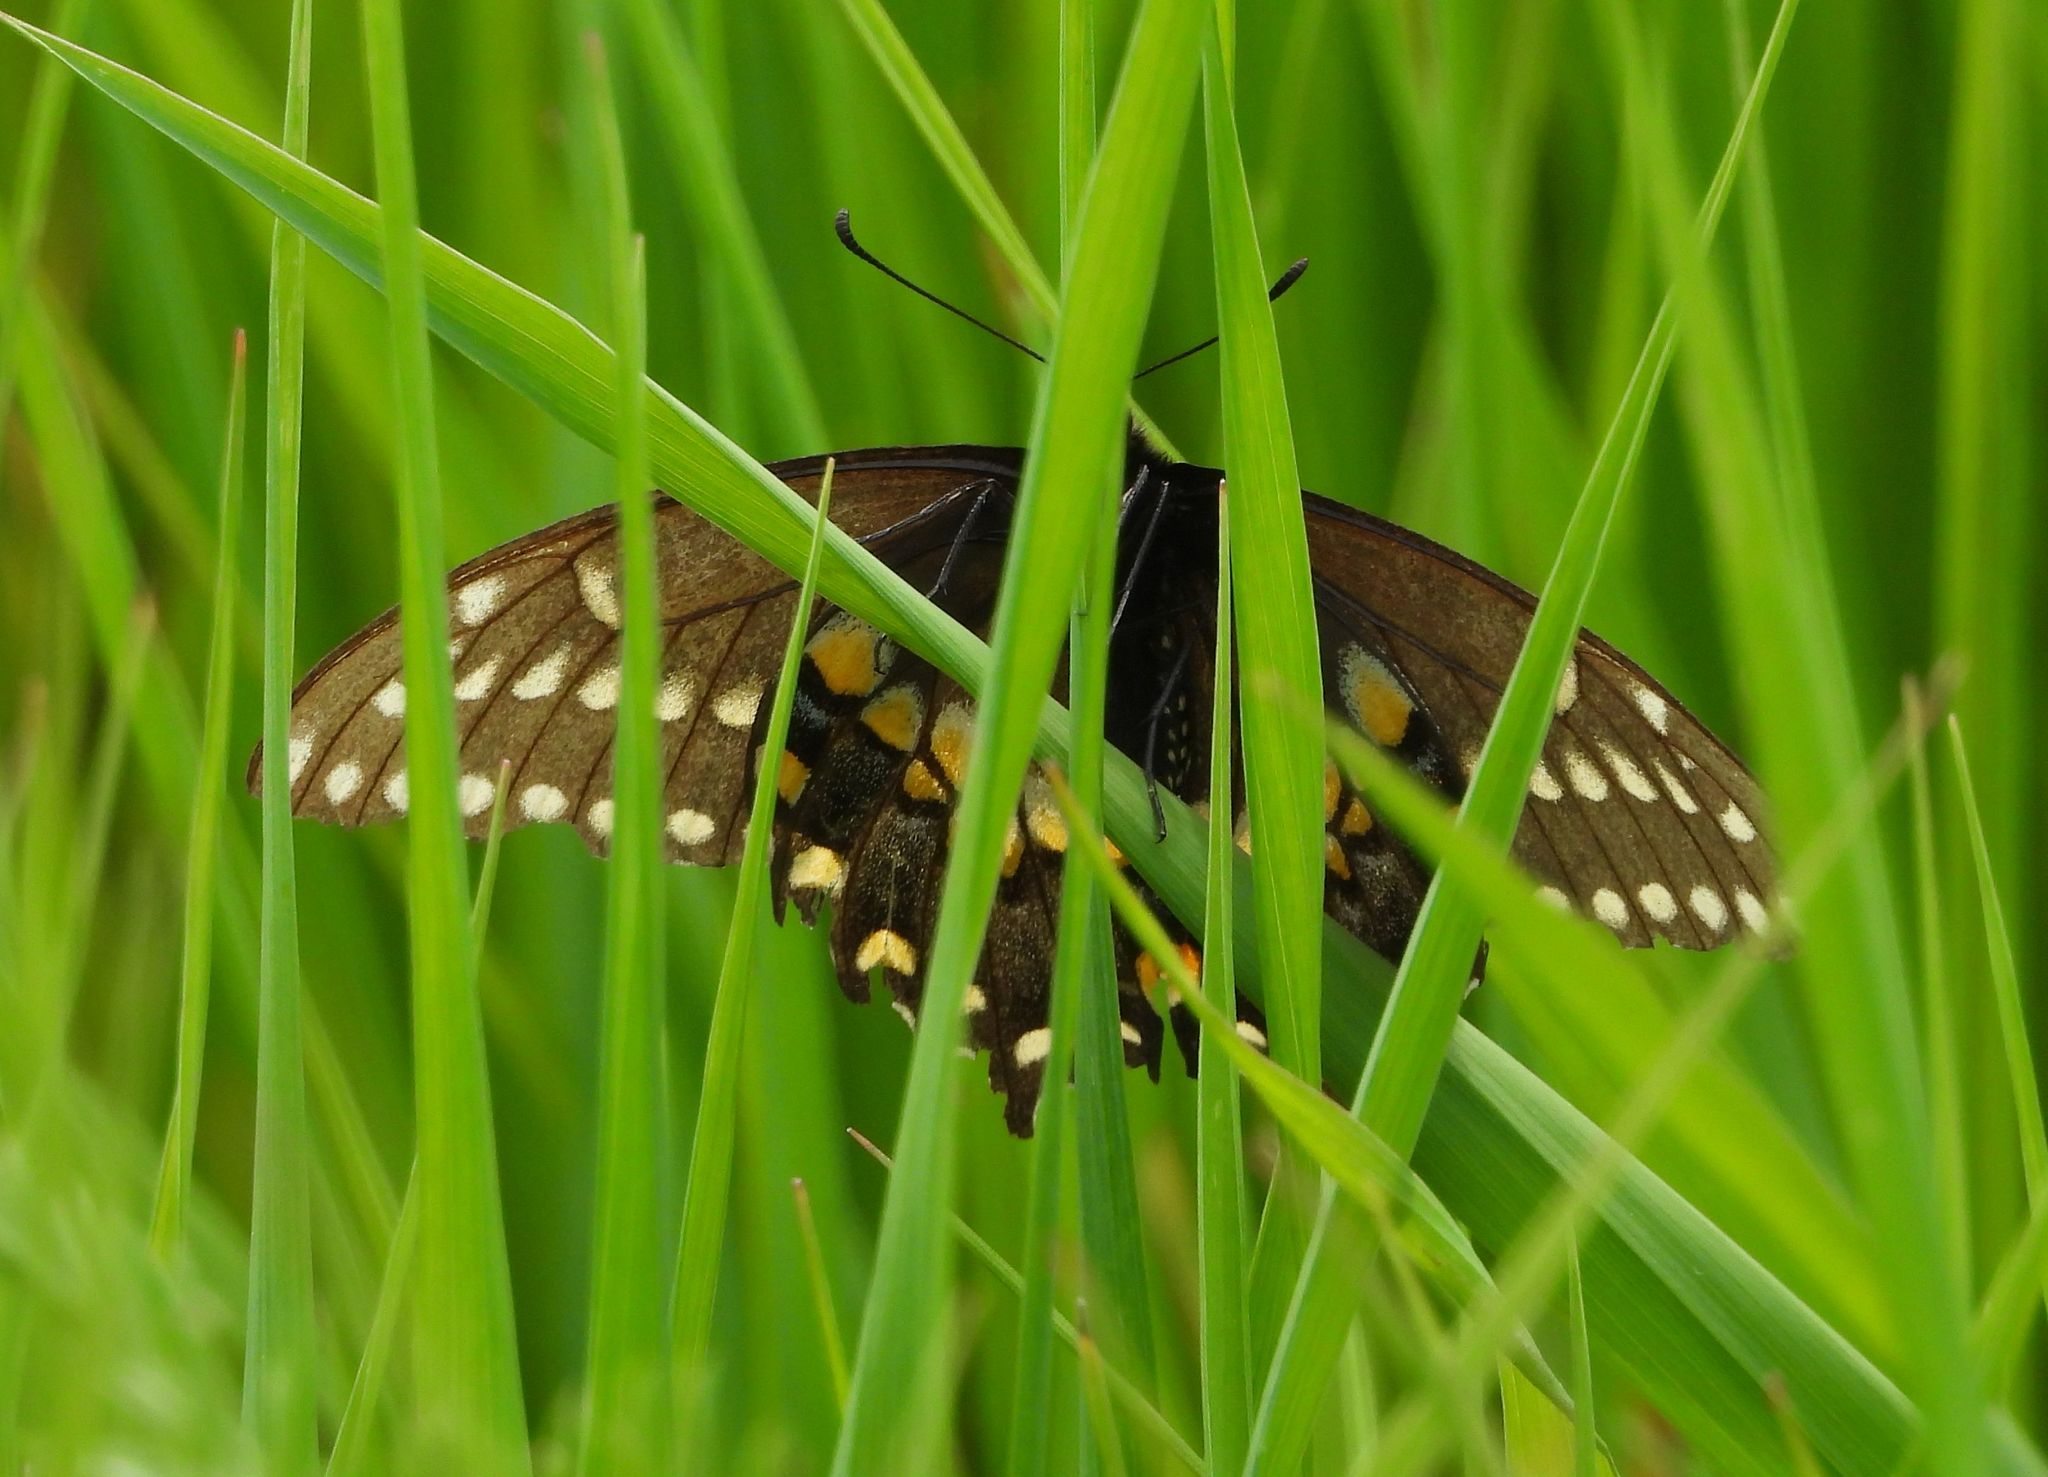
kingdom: Animalia
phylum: Arthropoda
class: Insecta
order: Lepidoptera
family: Papilionidae
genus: Papilio
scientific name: Papilio polyxenes
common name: Black swallowtail
